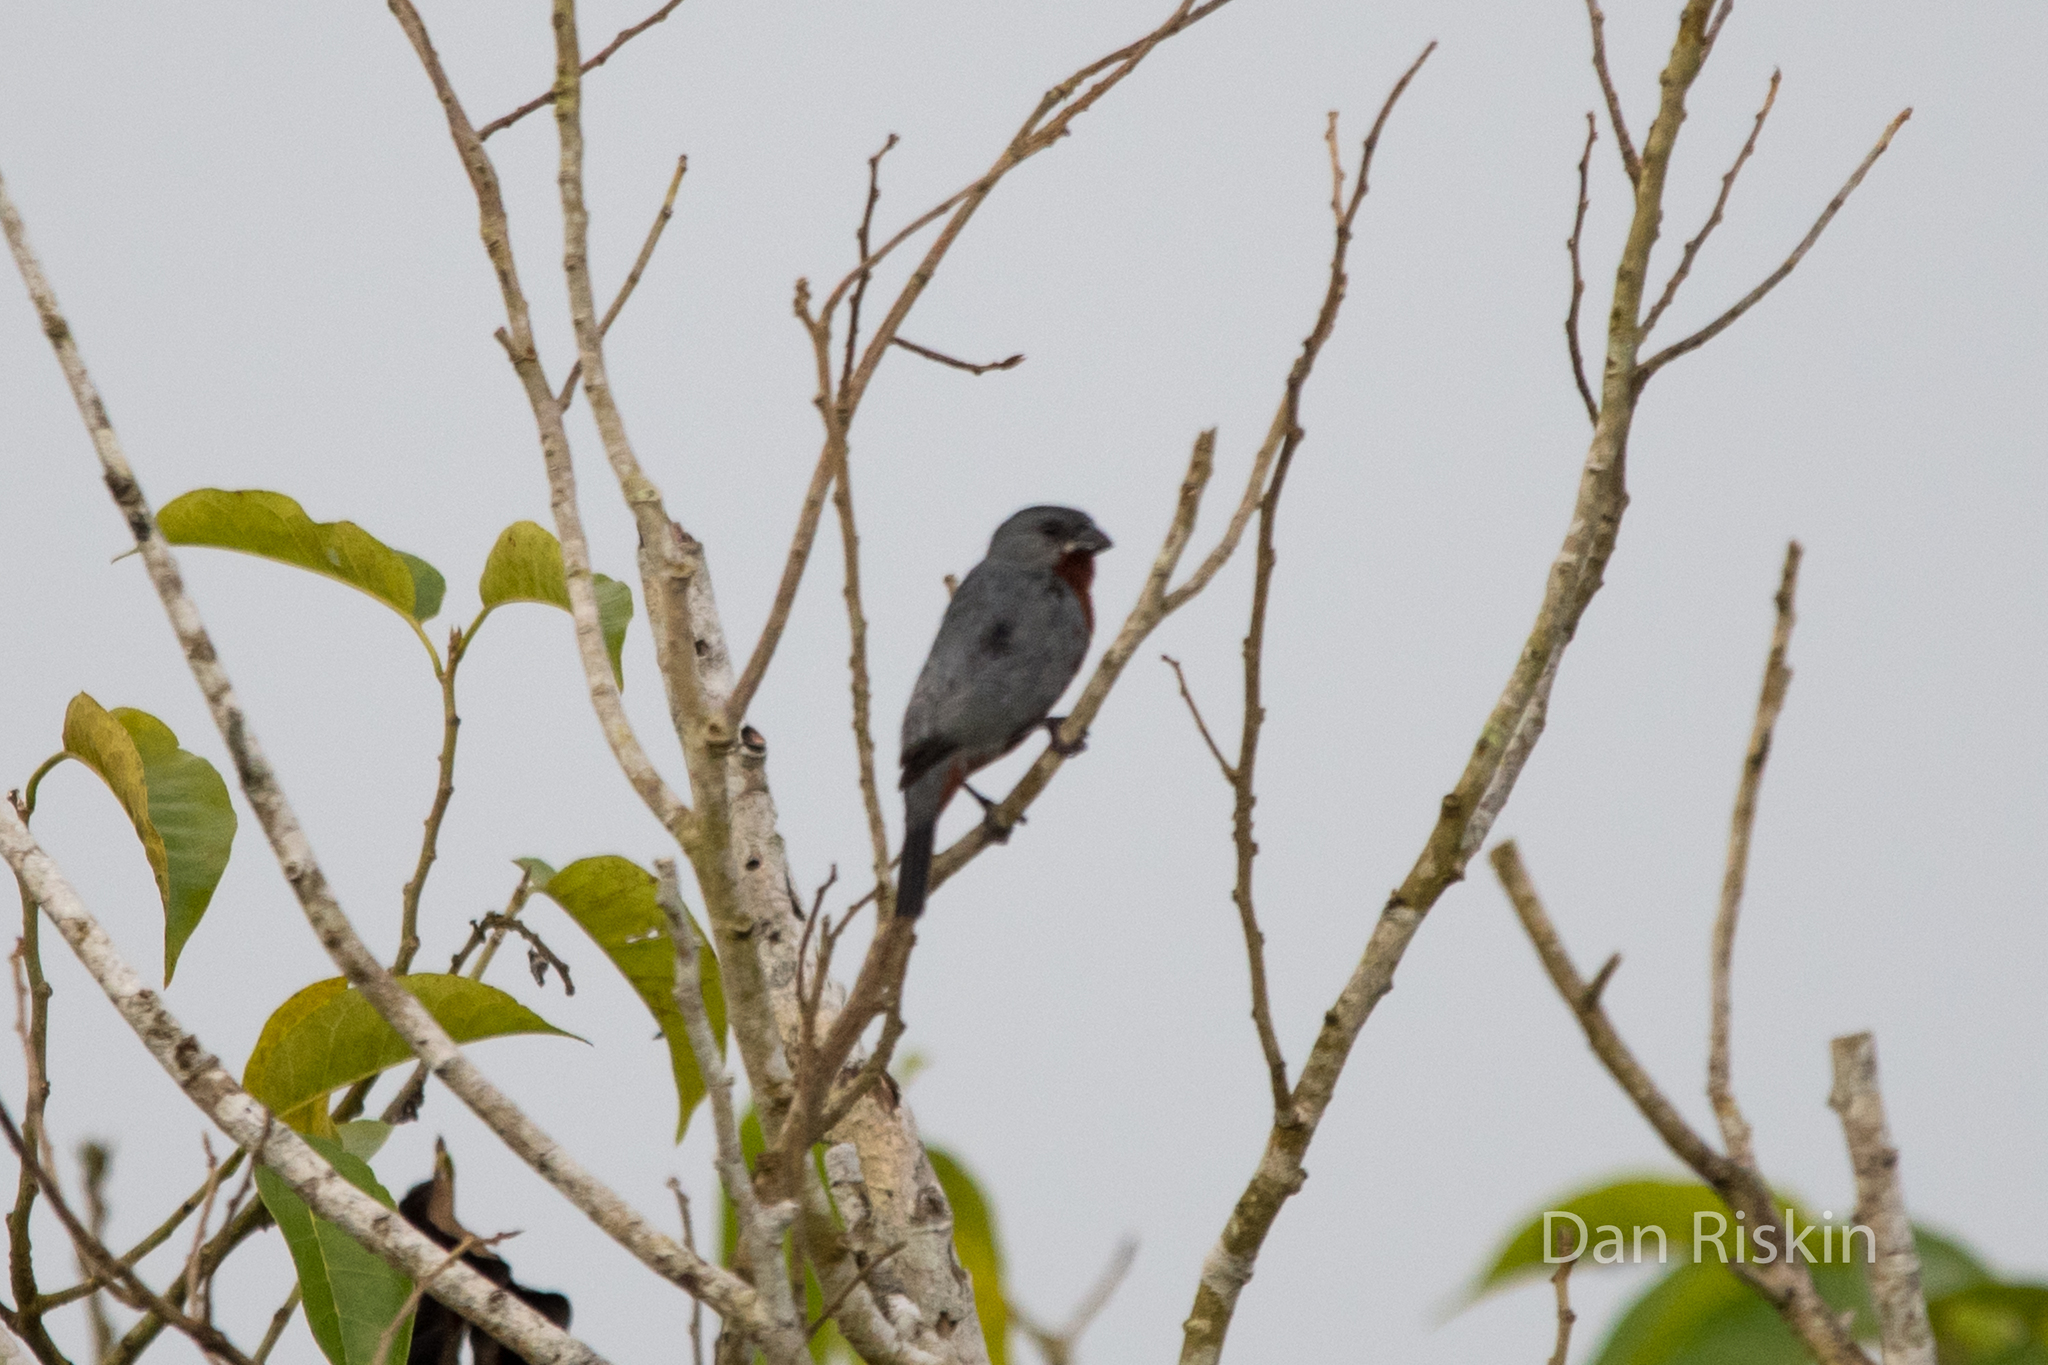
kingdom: Animalia
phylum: Chordata
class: Aves
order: Passeriformes
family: Thraupidae
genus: Sporophila
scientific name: Sporophila castaneiventris
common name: Chestnut-bellied seedeater
